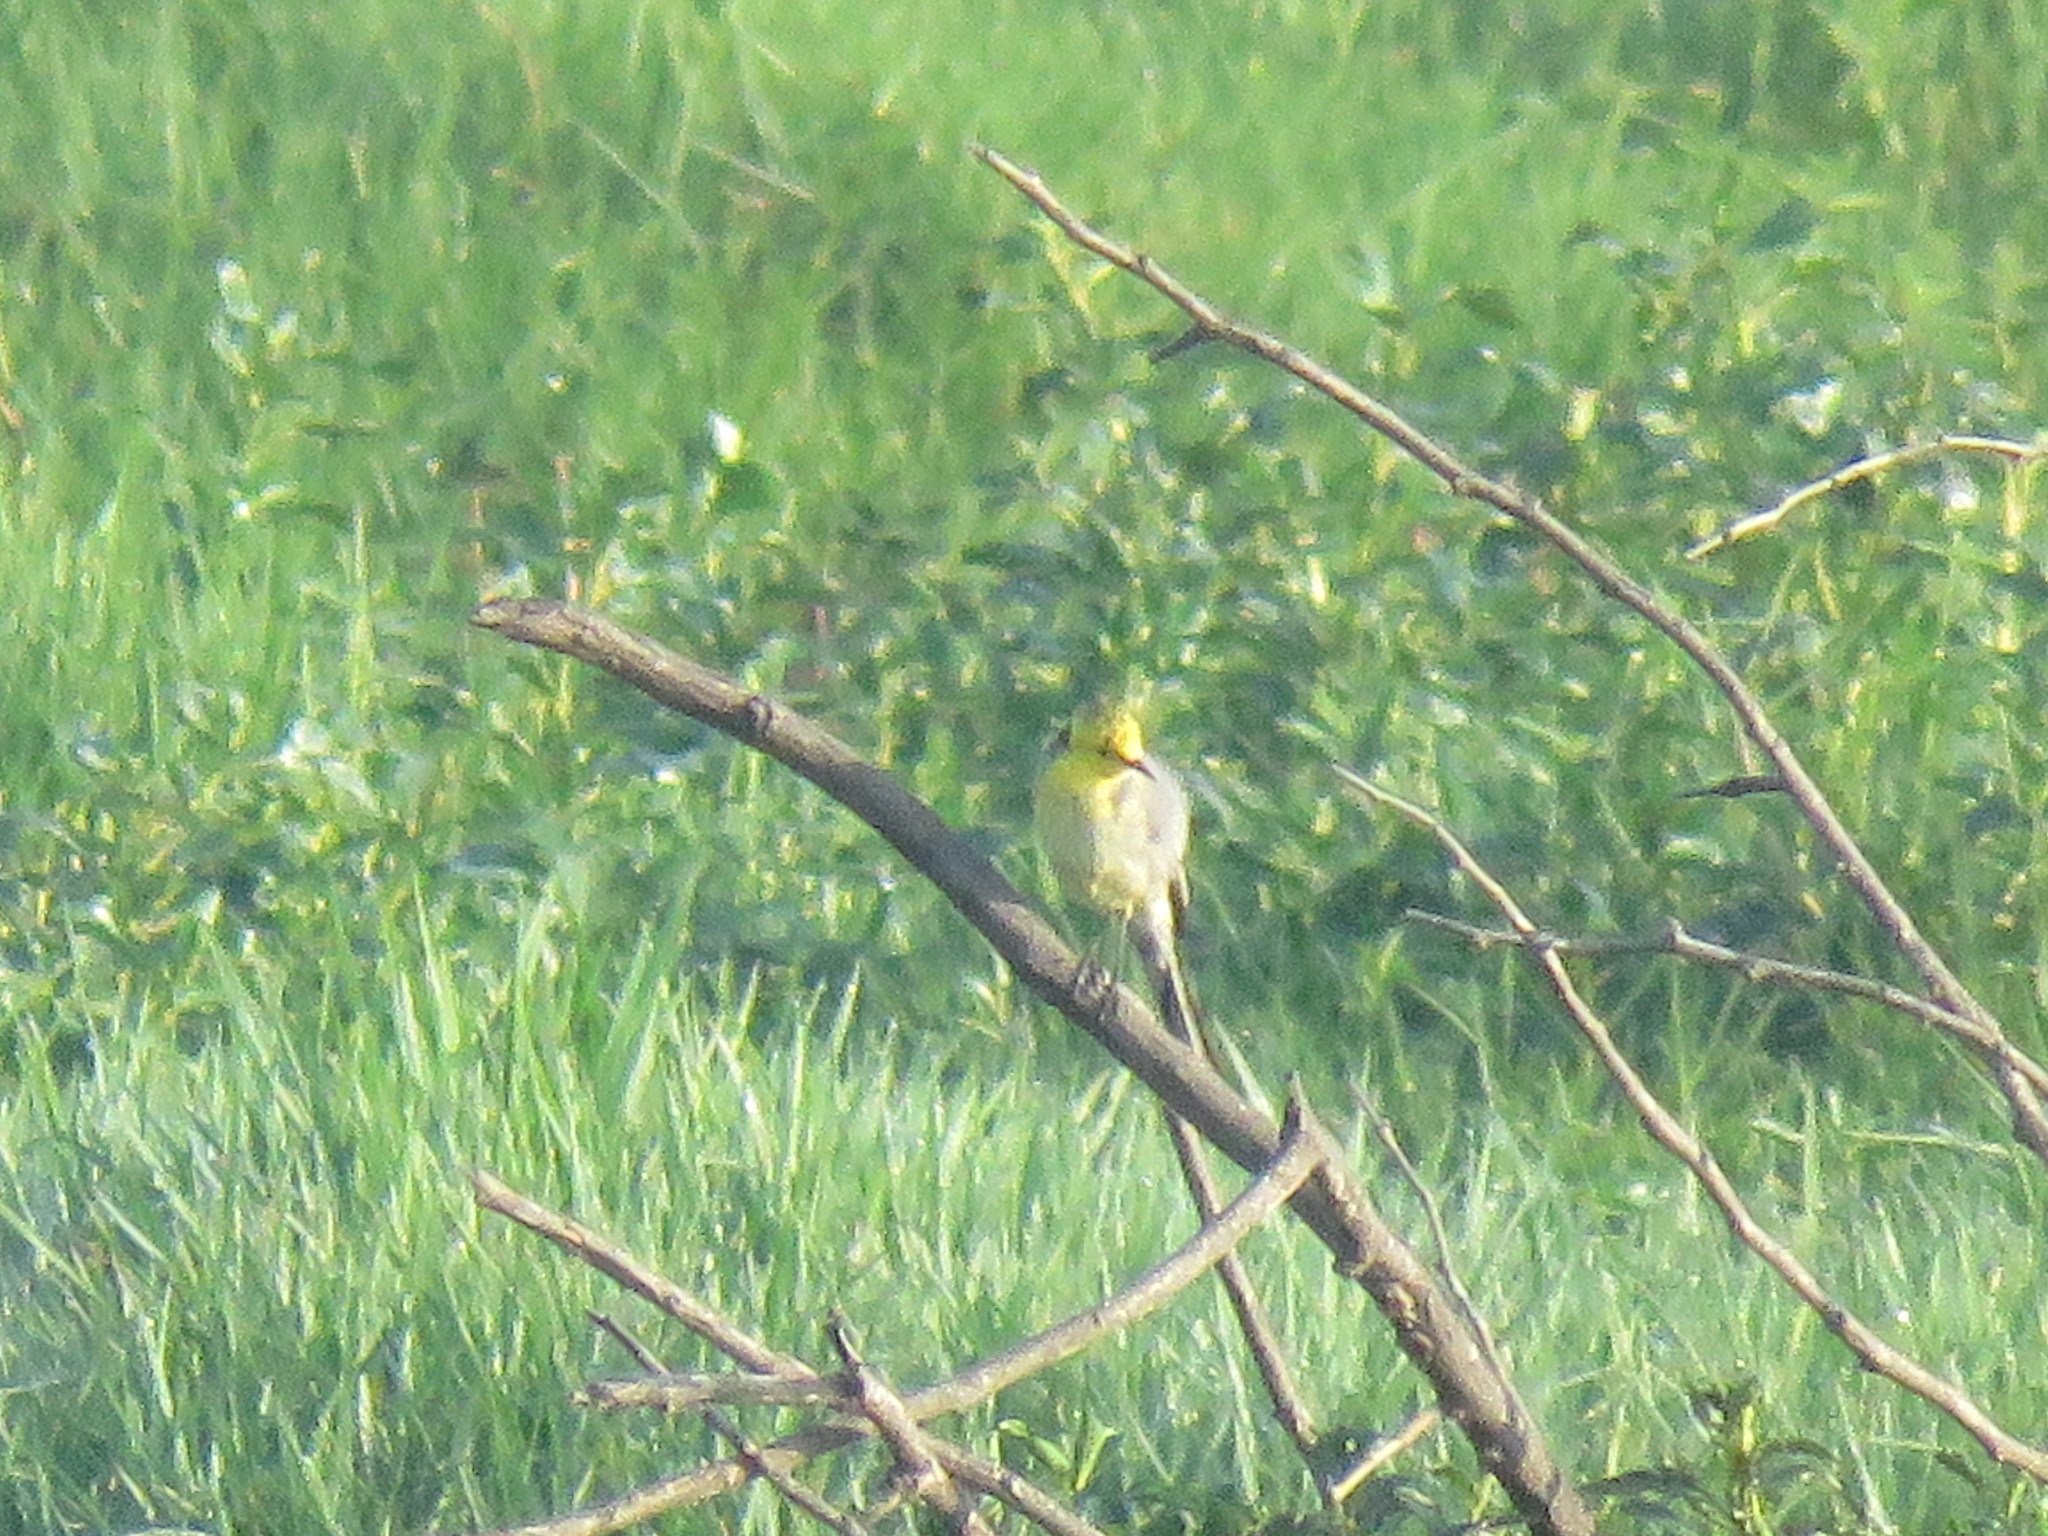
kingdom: Animalia
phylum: Chordata
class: Aves
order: Passeriformes
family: Motacillidae
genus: Motacilla
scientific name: Motacilla citreola
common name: Citrine wagtail
